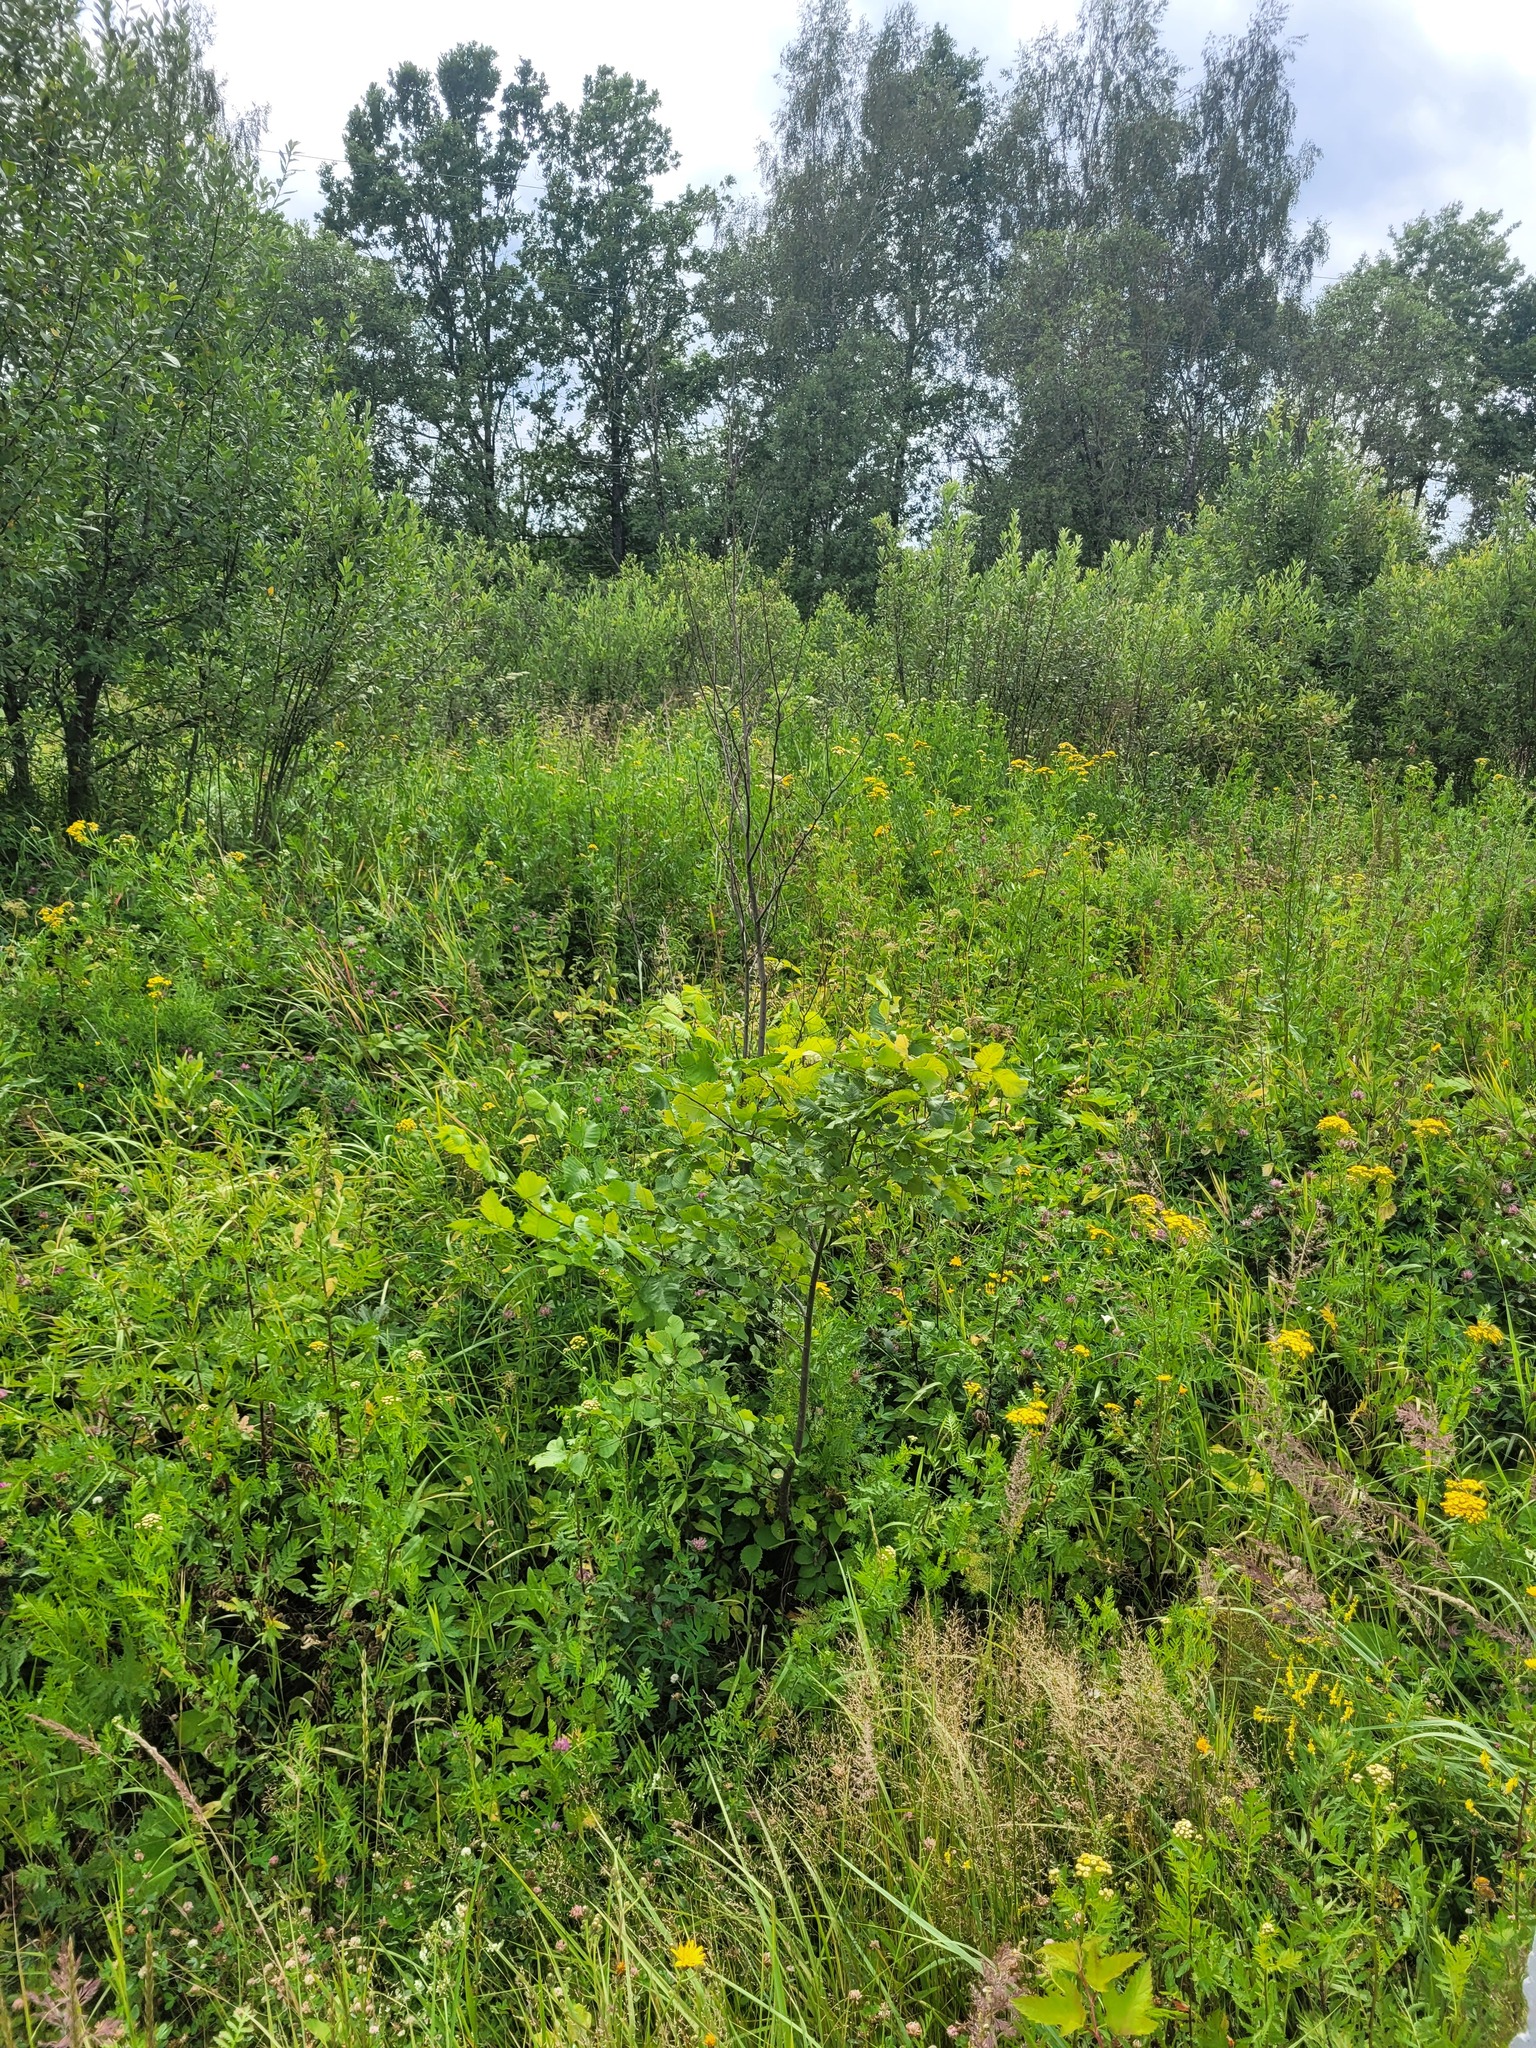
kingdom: Plantae
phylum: Tracheophyta
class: Magnoliopsida
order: Rosales
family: Ulmaceae
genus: Ulmus
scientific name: Ulmus laevis
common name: European white-elm
